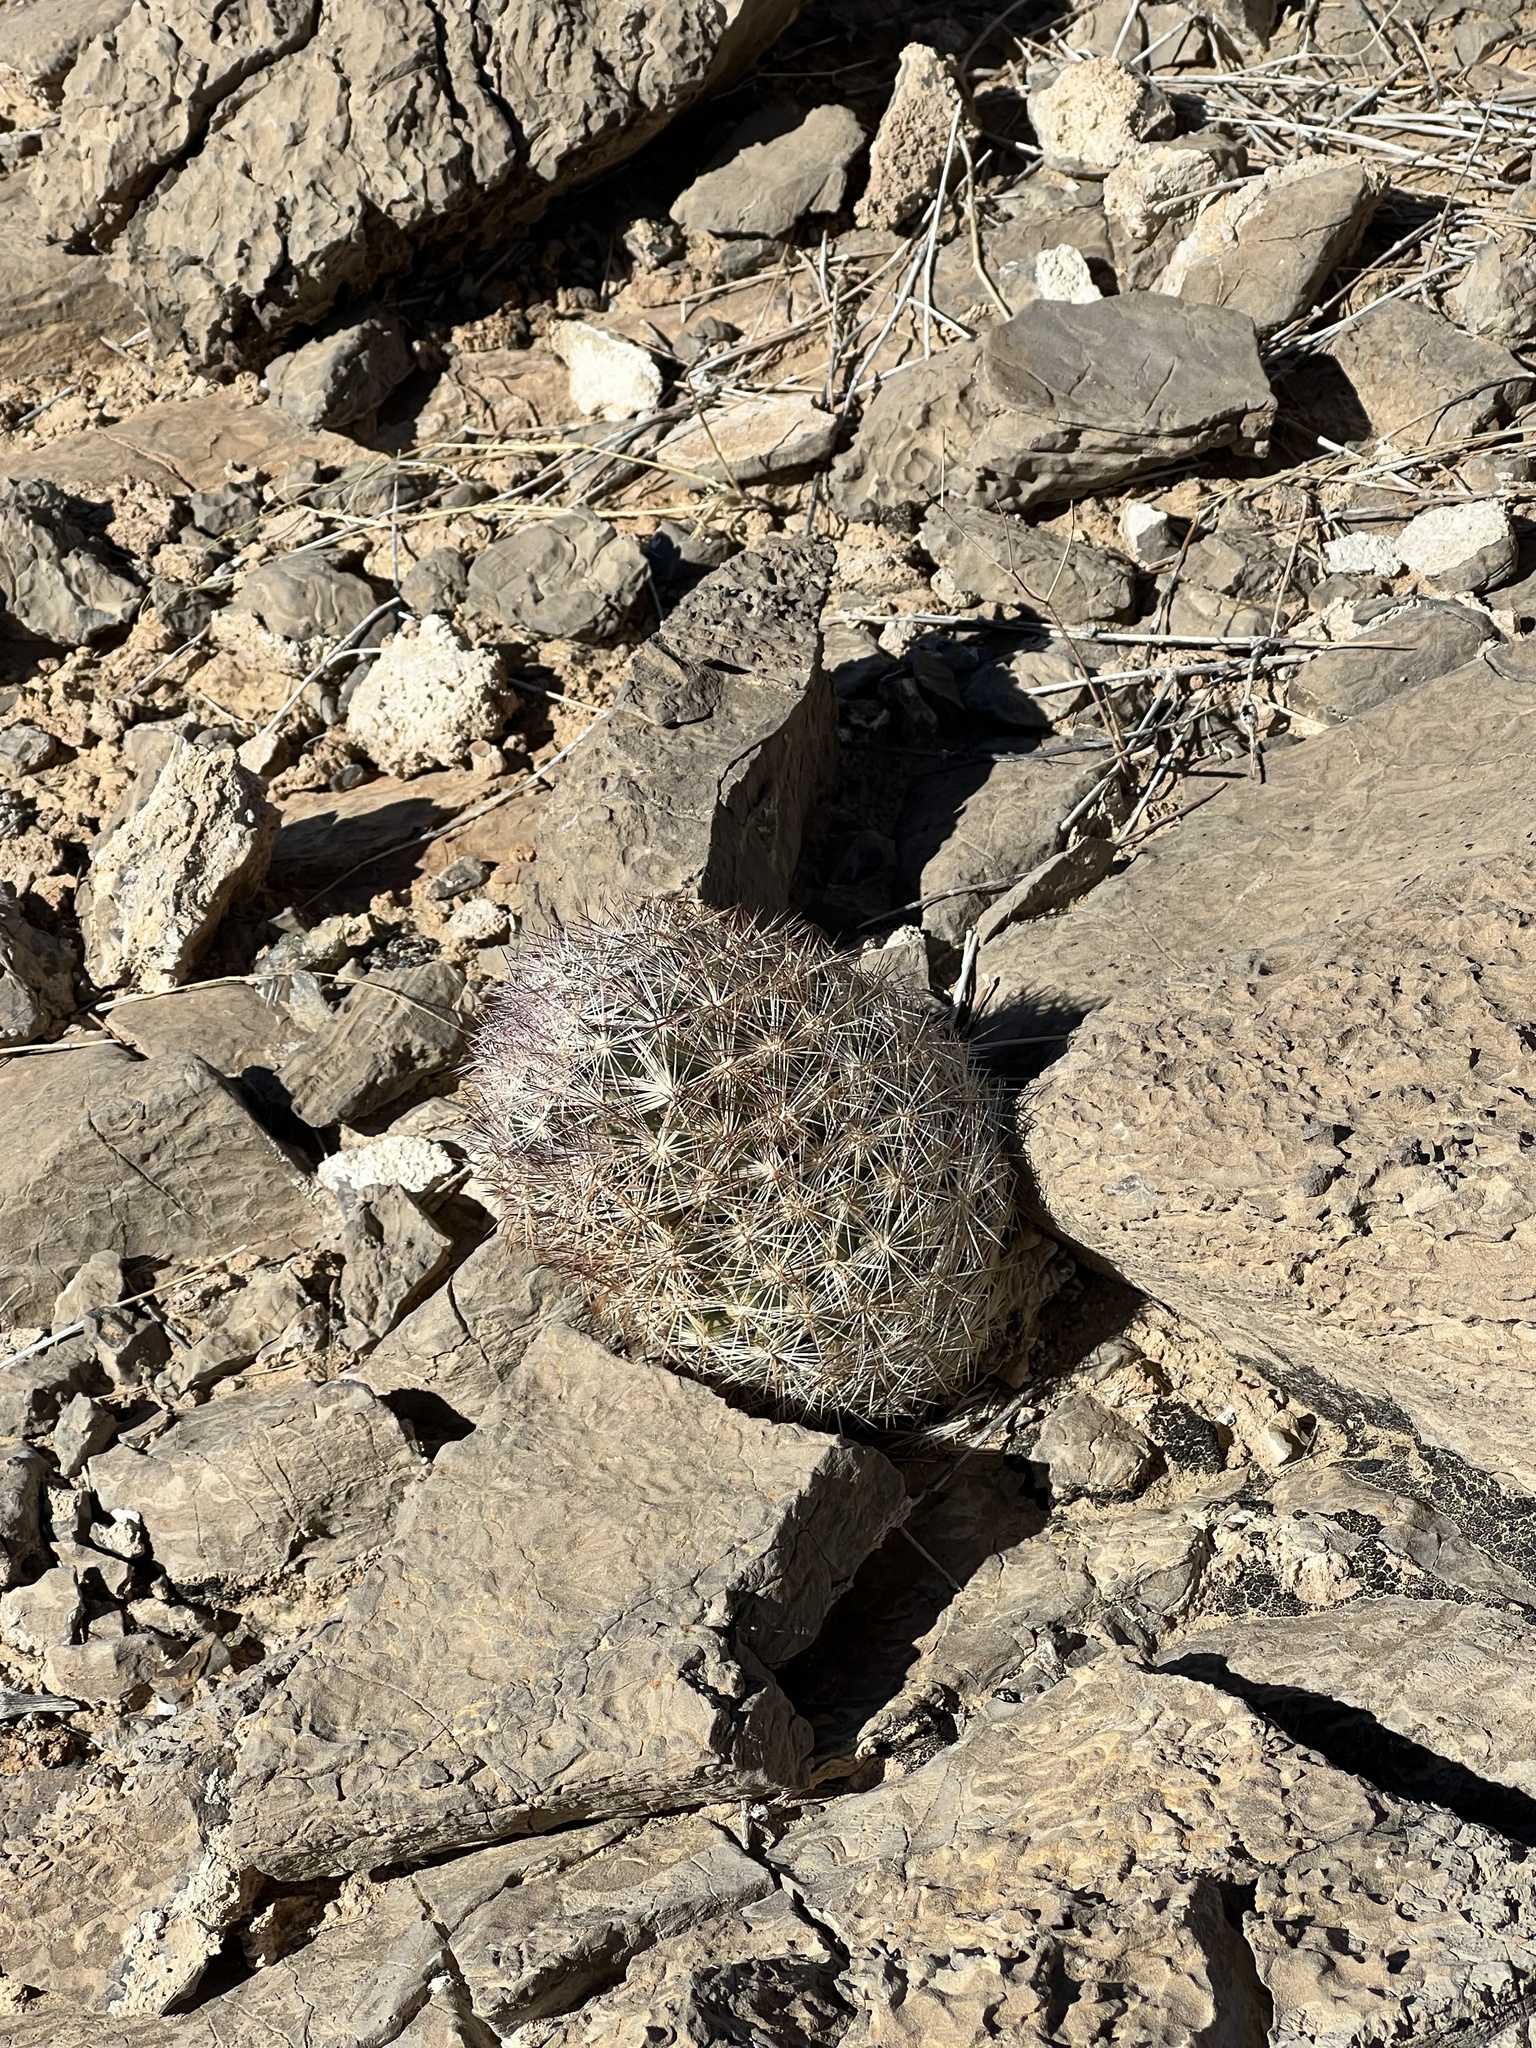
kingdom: Plantae
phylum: Tracheophyta
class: Magnoliopsida
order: Caryophyllales
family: Cactaceae
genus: Pelecyphora
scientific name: Pelecyphora vivipara
